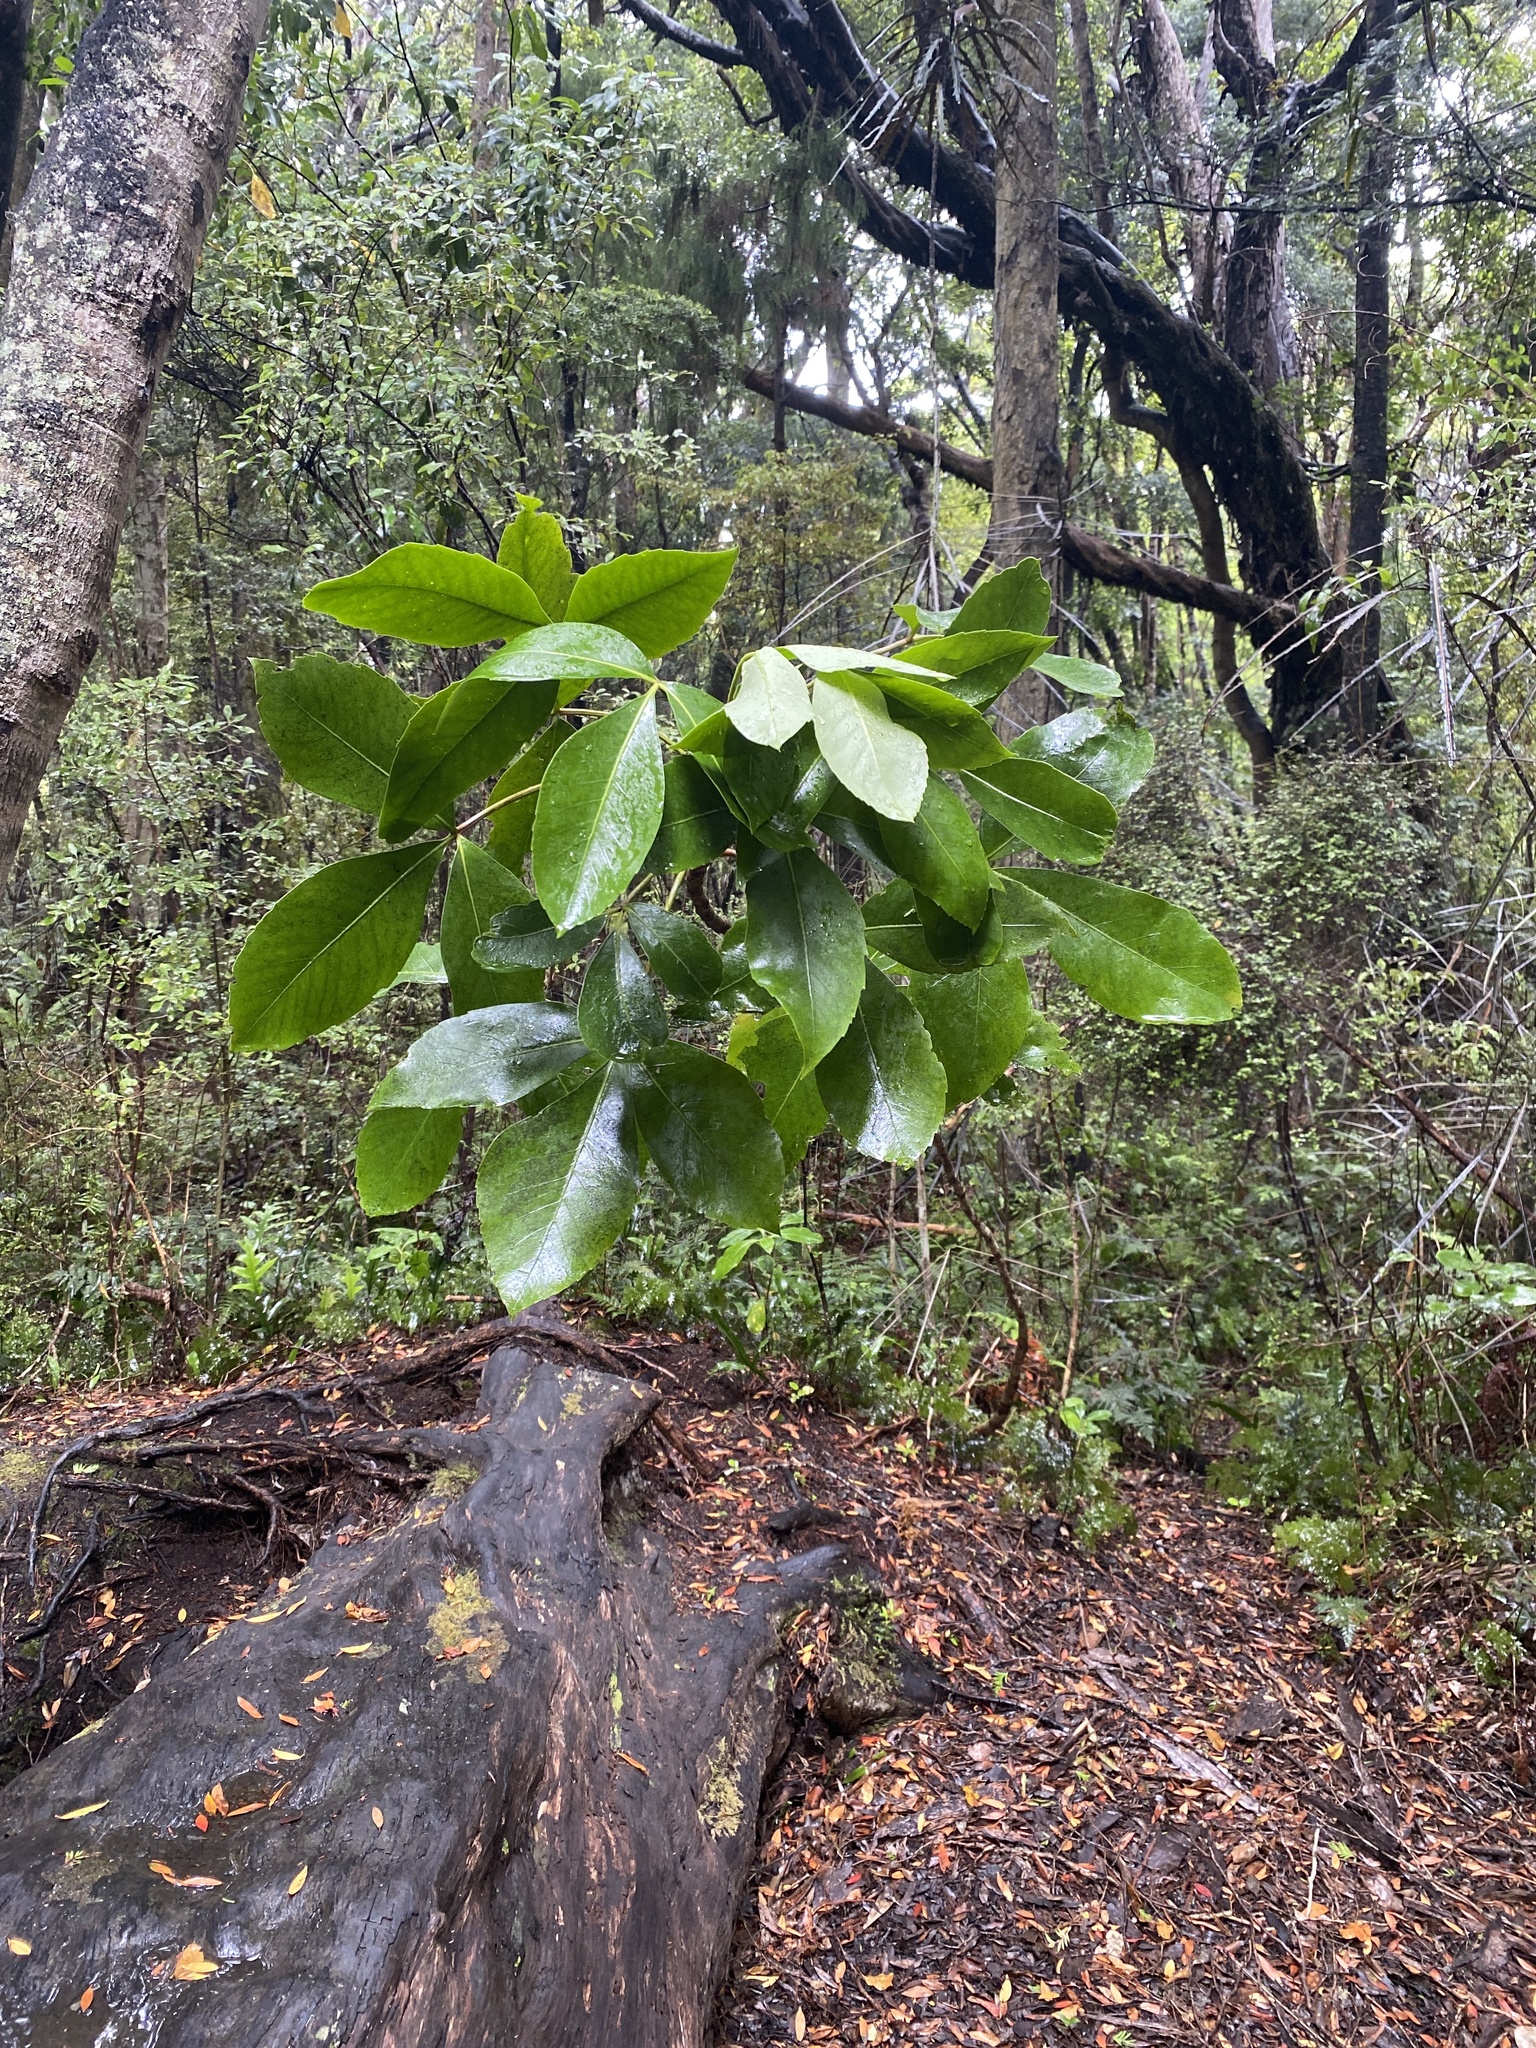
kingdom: Plantae
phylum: Tracheophyta
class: Magnoliopsida
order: Apiales
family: Araliaceae
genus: Neopanax
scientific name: Neopanax colensoi
